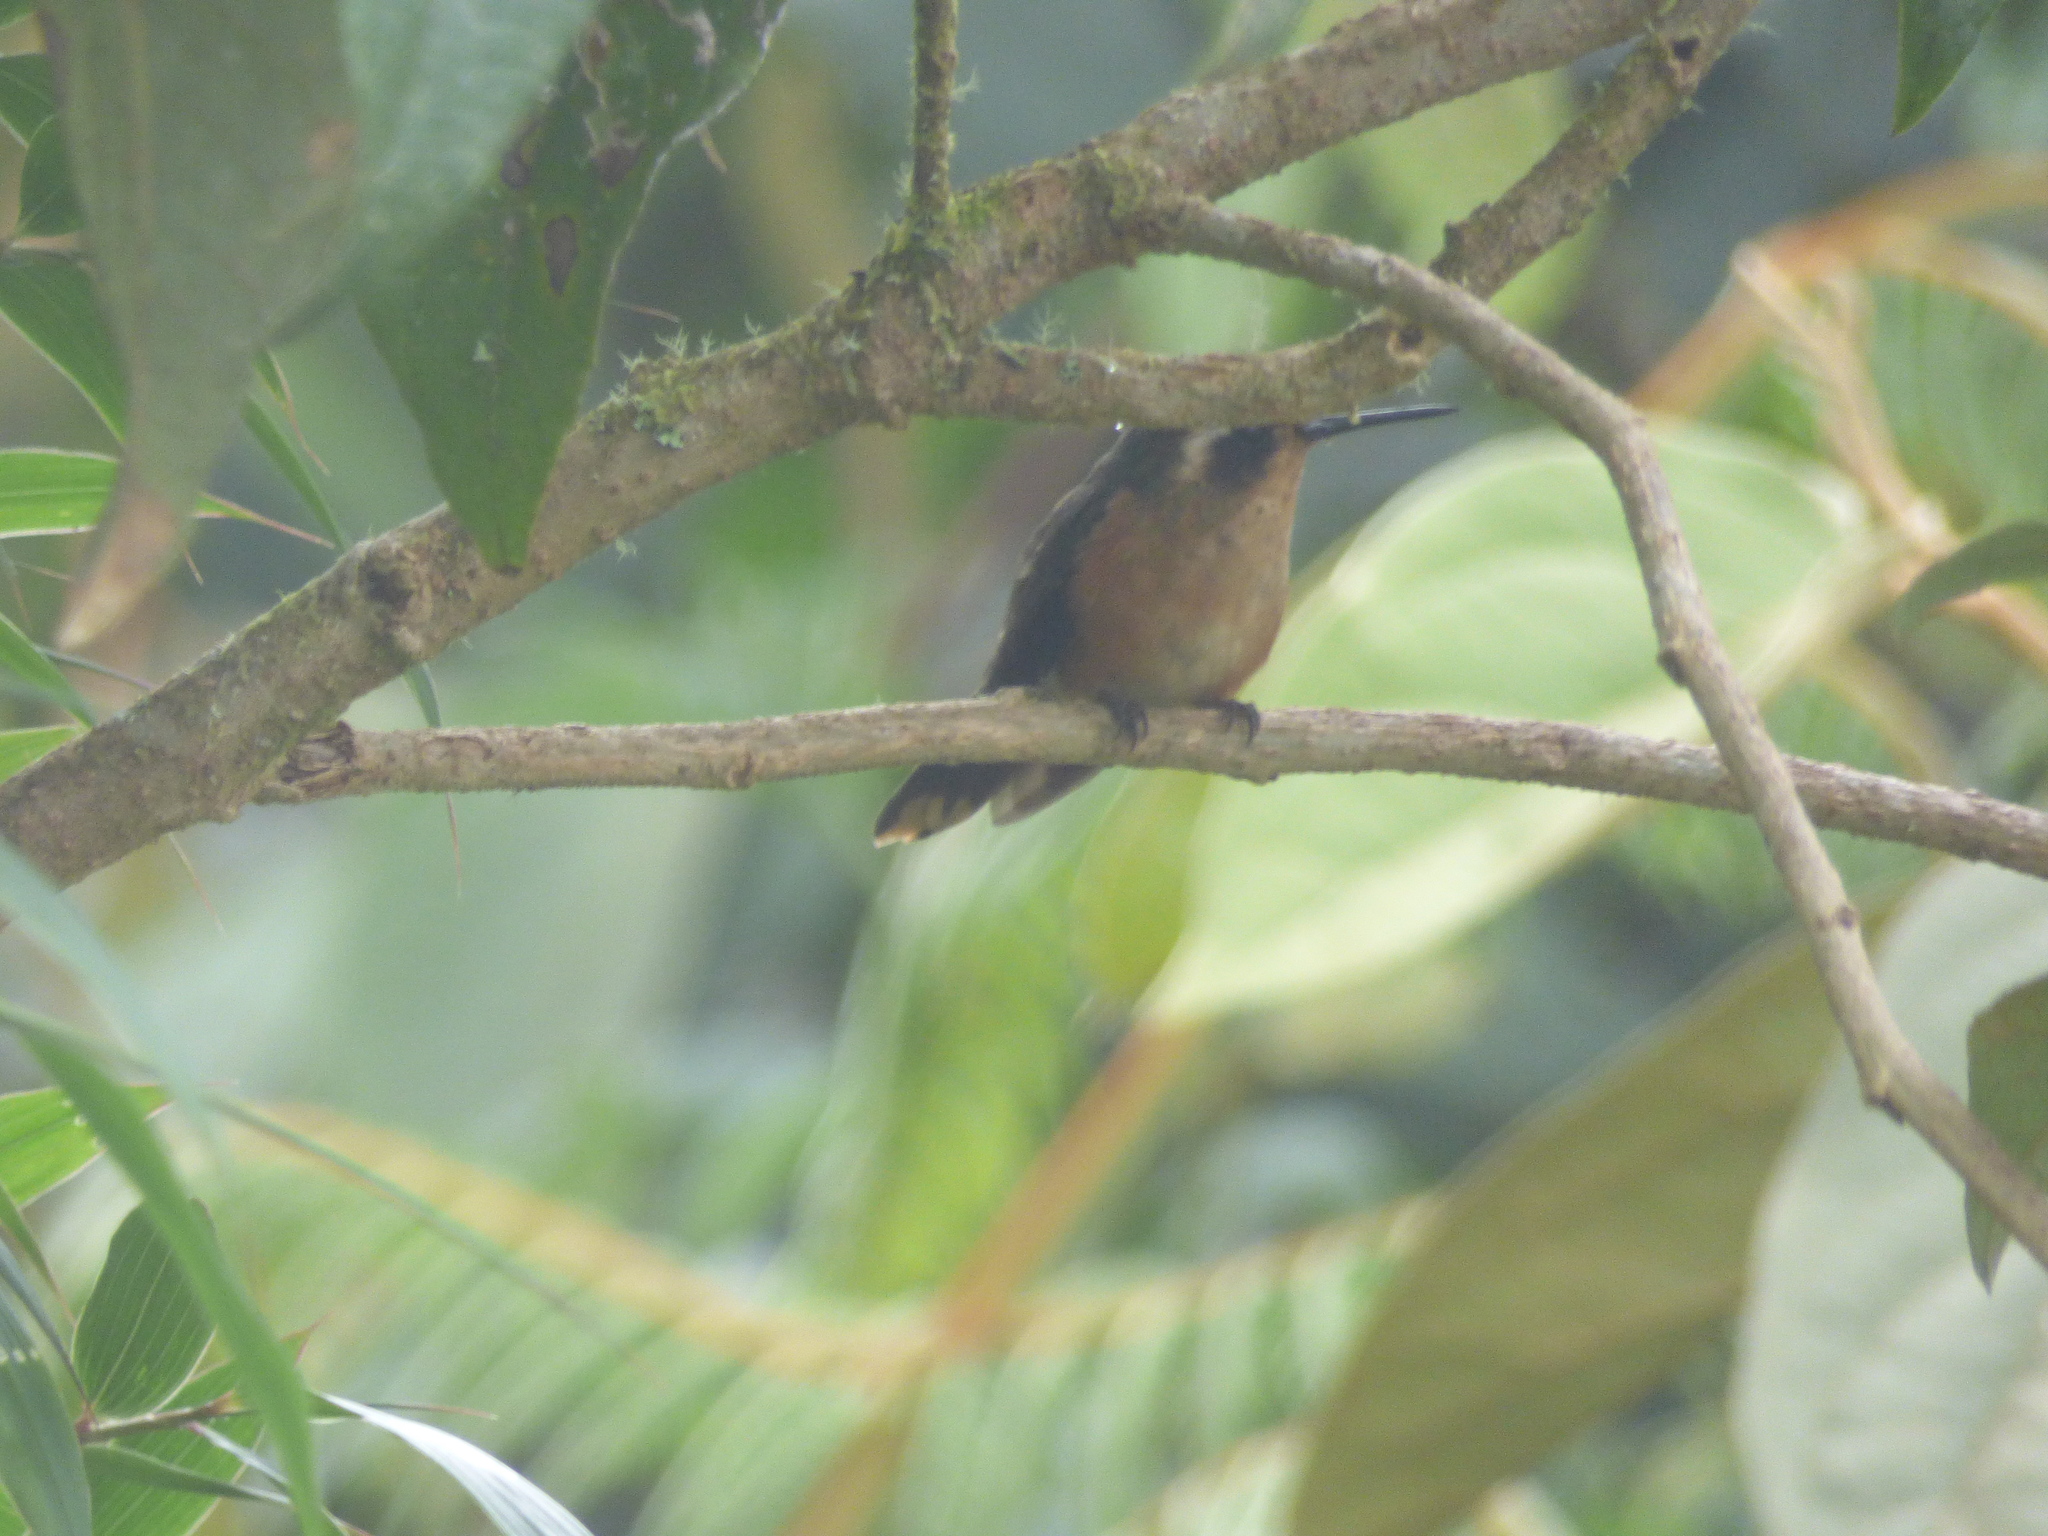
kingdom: Animalia
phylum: Chordata
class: Aves
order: Apodiformes
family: Trochilidae
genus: Chaetocercus
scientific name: Chaetocercus mulsant
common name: White-bellied woodstar
